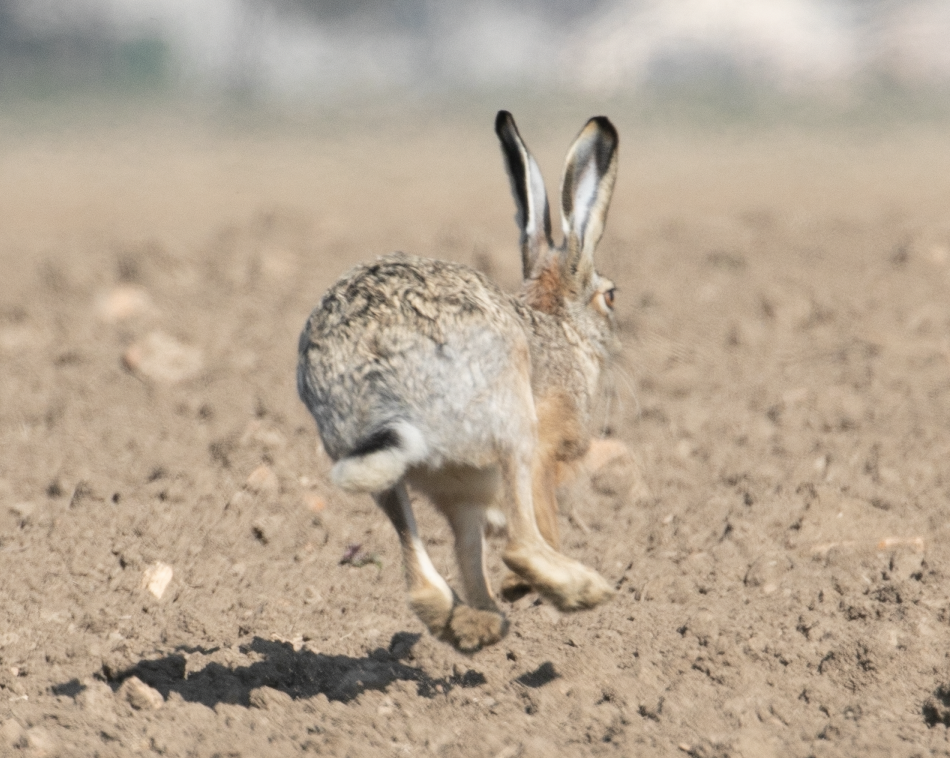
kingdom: Animalia
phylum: Chordata
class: Mammalia
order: Lagomorpha
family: Leporidae
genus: Lepus
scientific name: Lepus europaeus
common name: European hare
